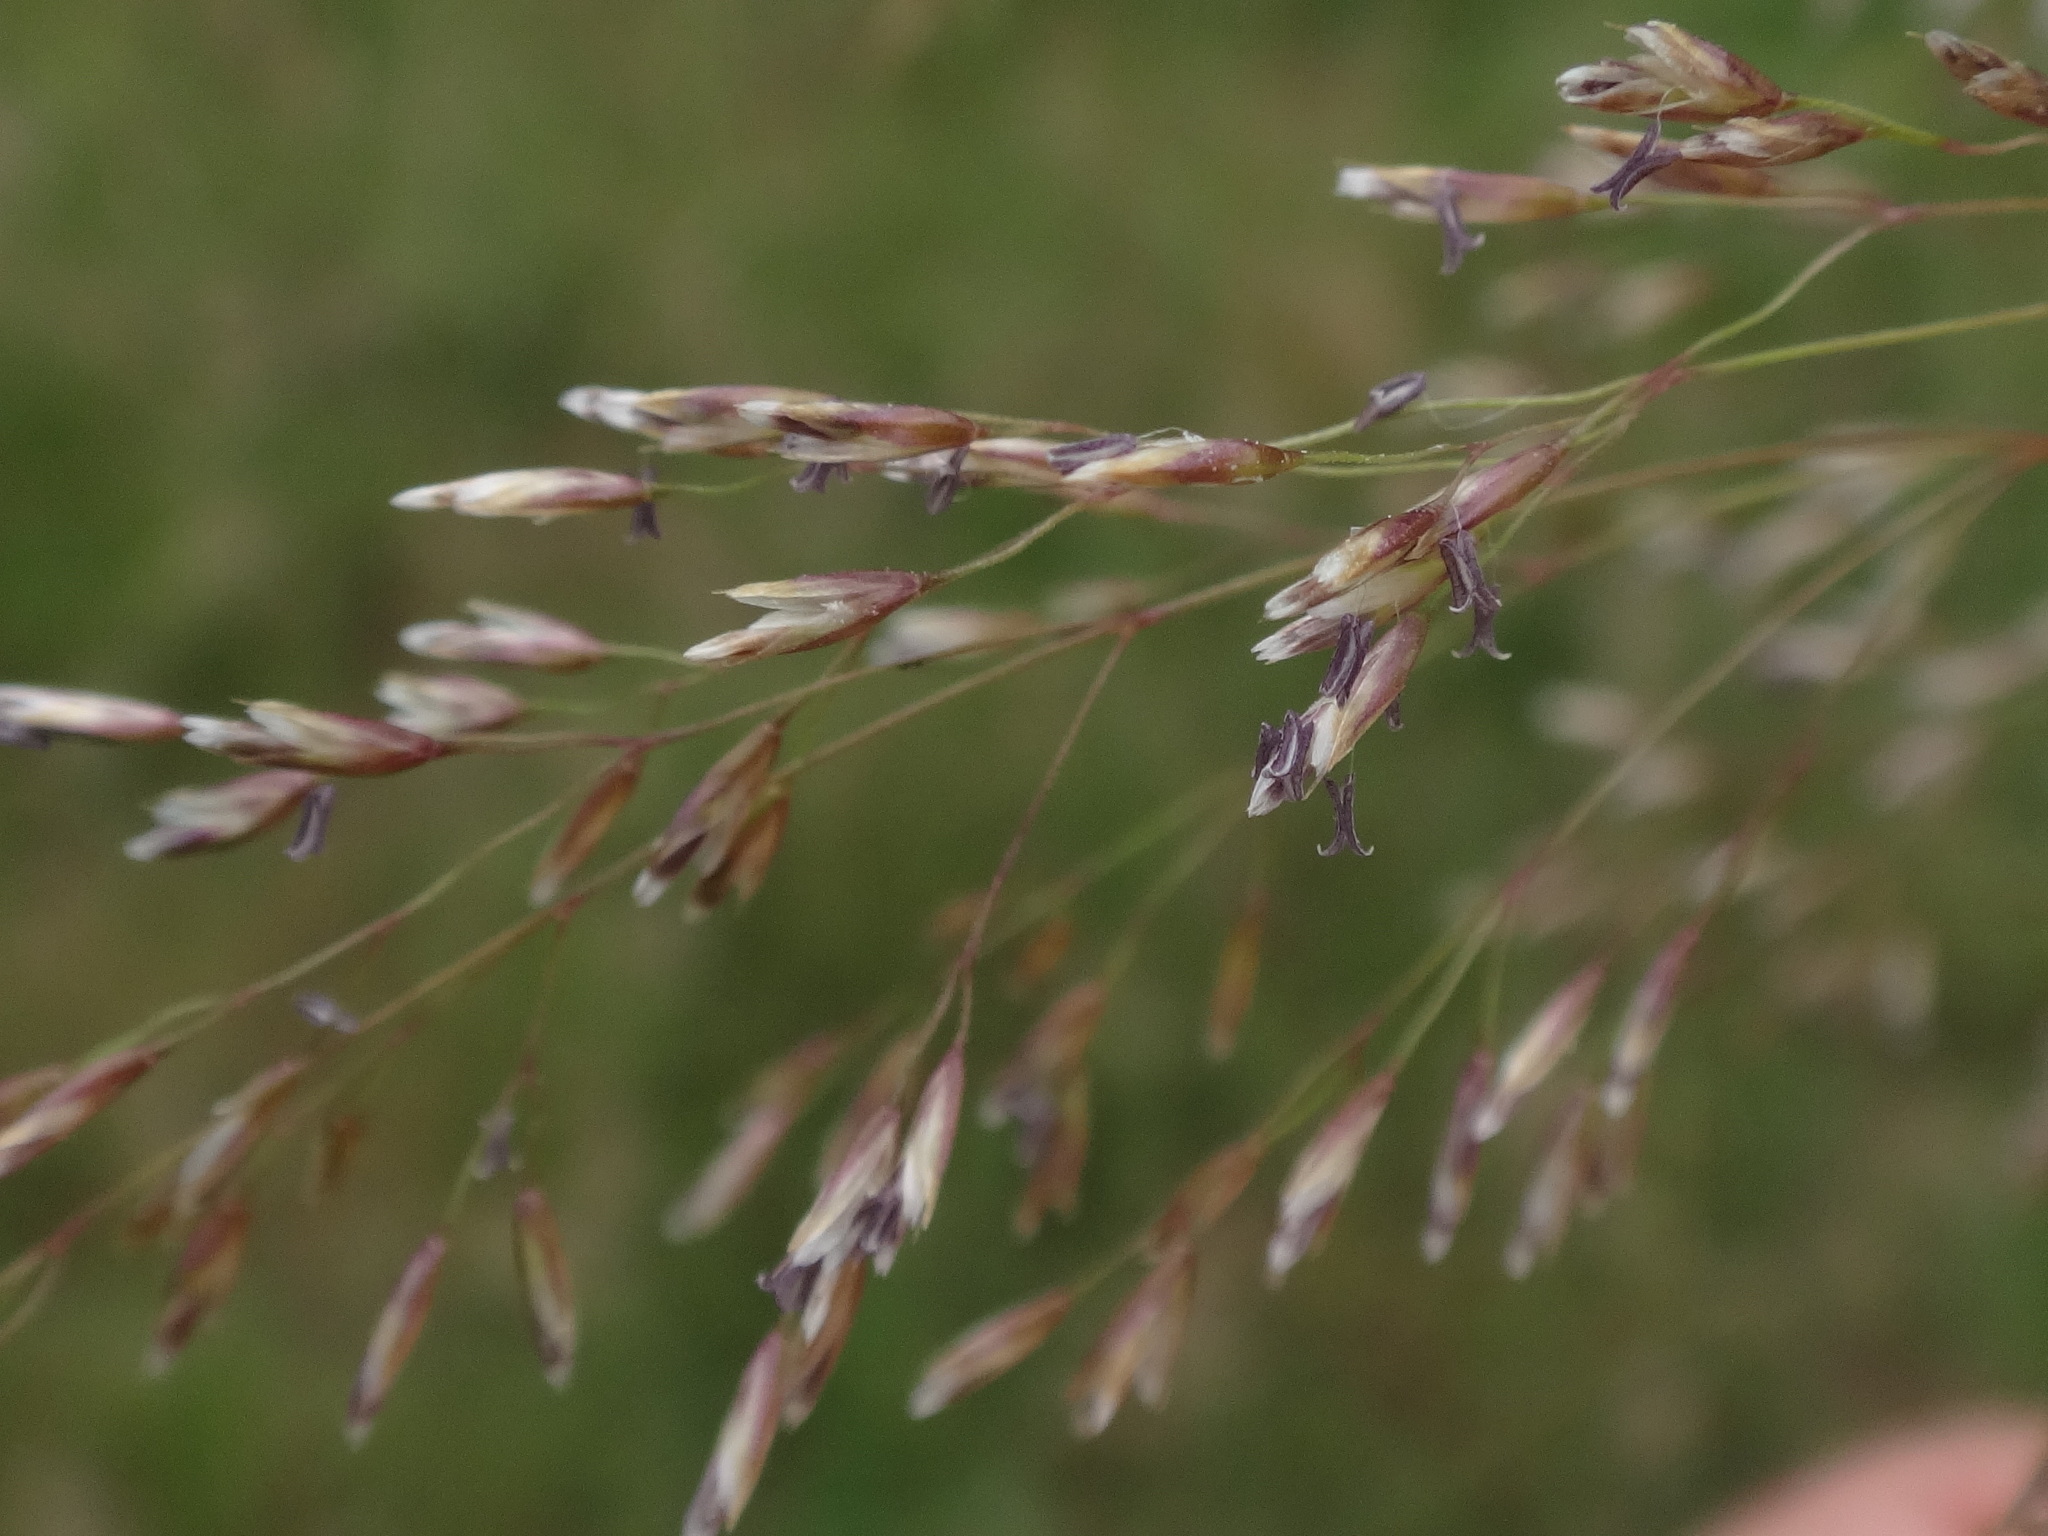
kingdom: Plantae
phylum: Tracheophyta
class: Liliopsida
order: Poales
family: Poaceae
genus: Deschampsia
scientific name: Deschampsia cespitosa
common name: Tufted hair-grass
